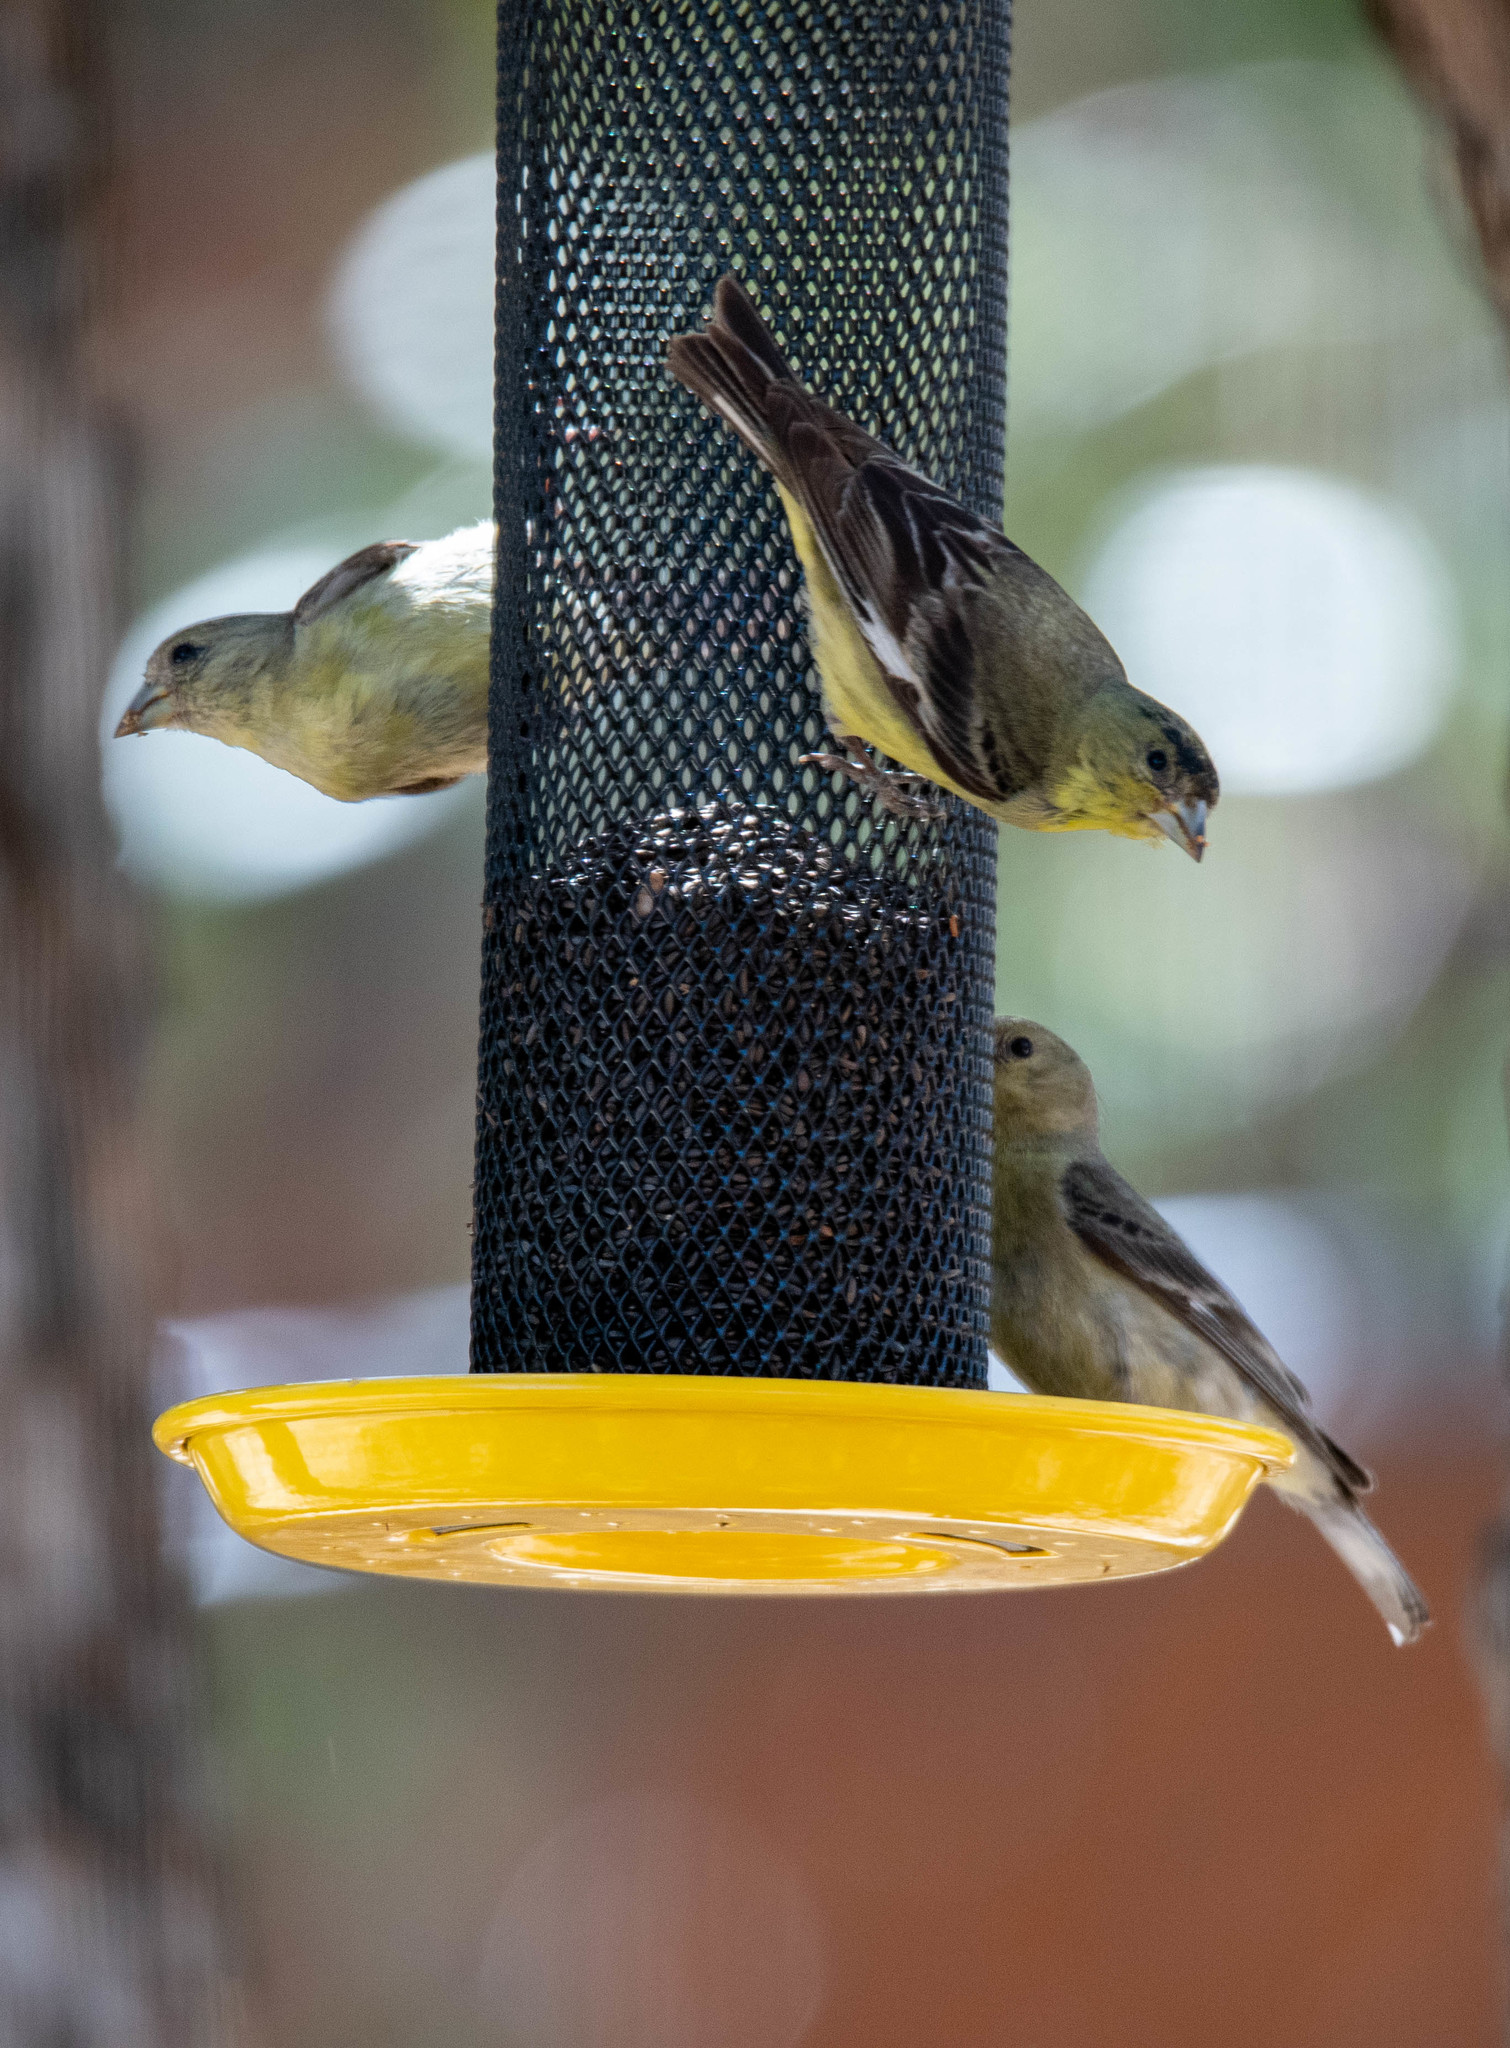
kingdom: Animalia
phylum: Chordata
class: Aves
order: Passeriformes
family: Fringillidae
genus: Spinus
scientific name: Spinus psaltria
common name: Lesser goldfinch
